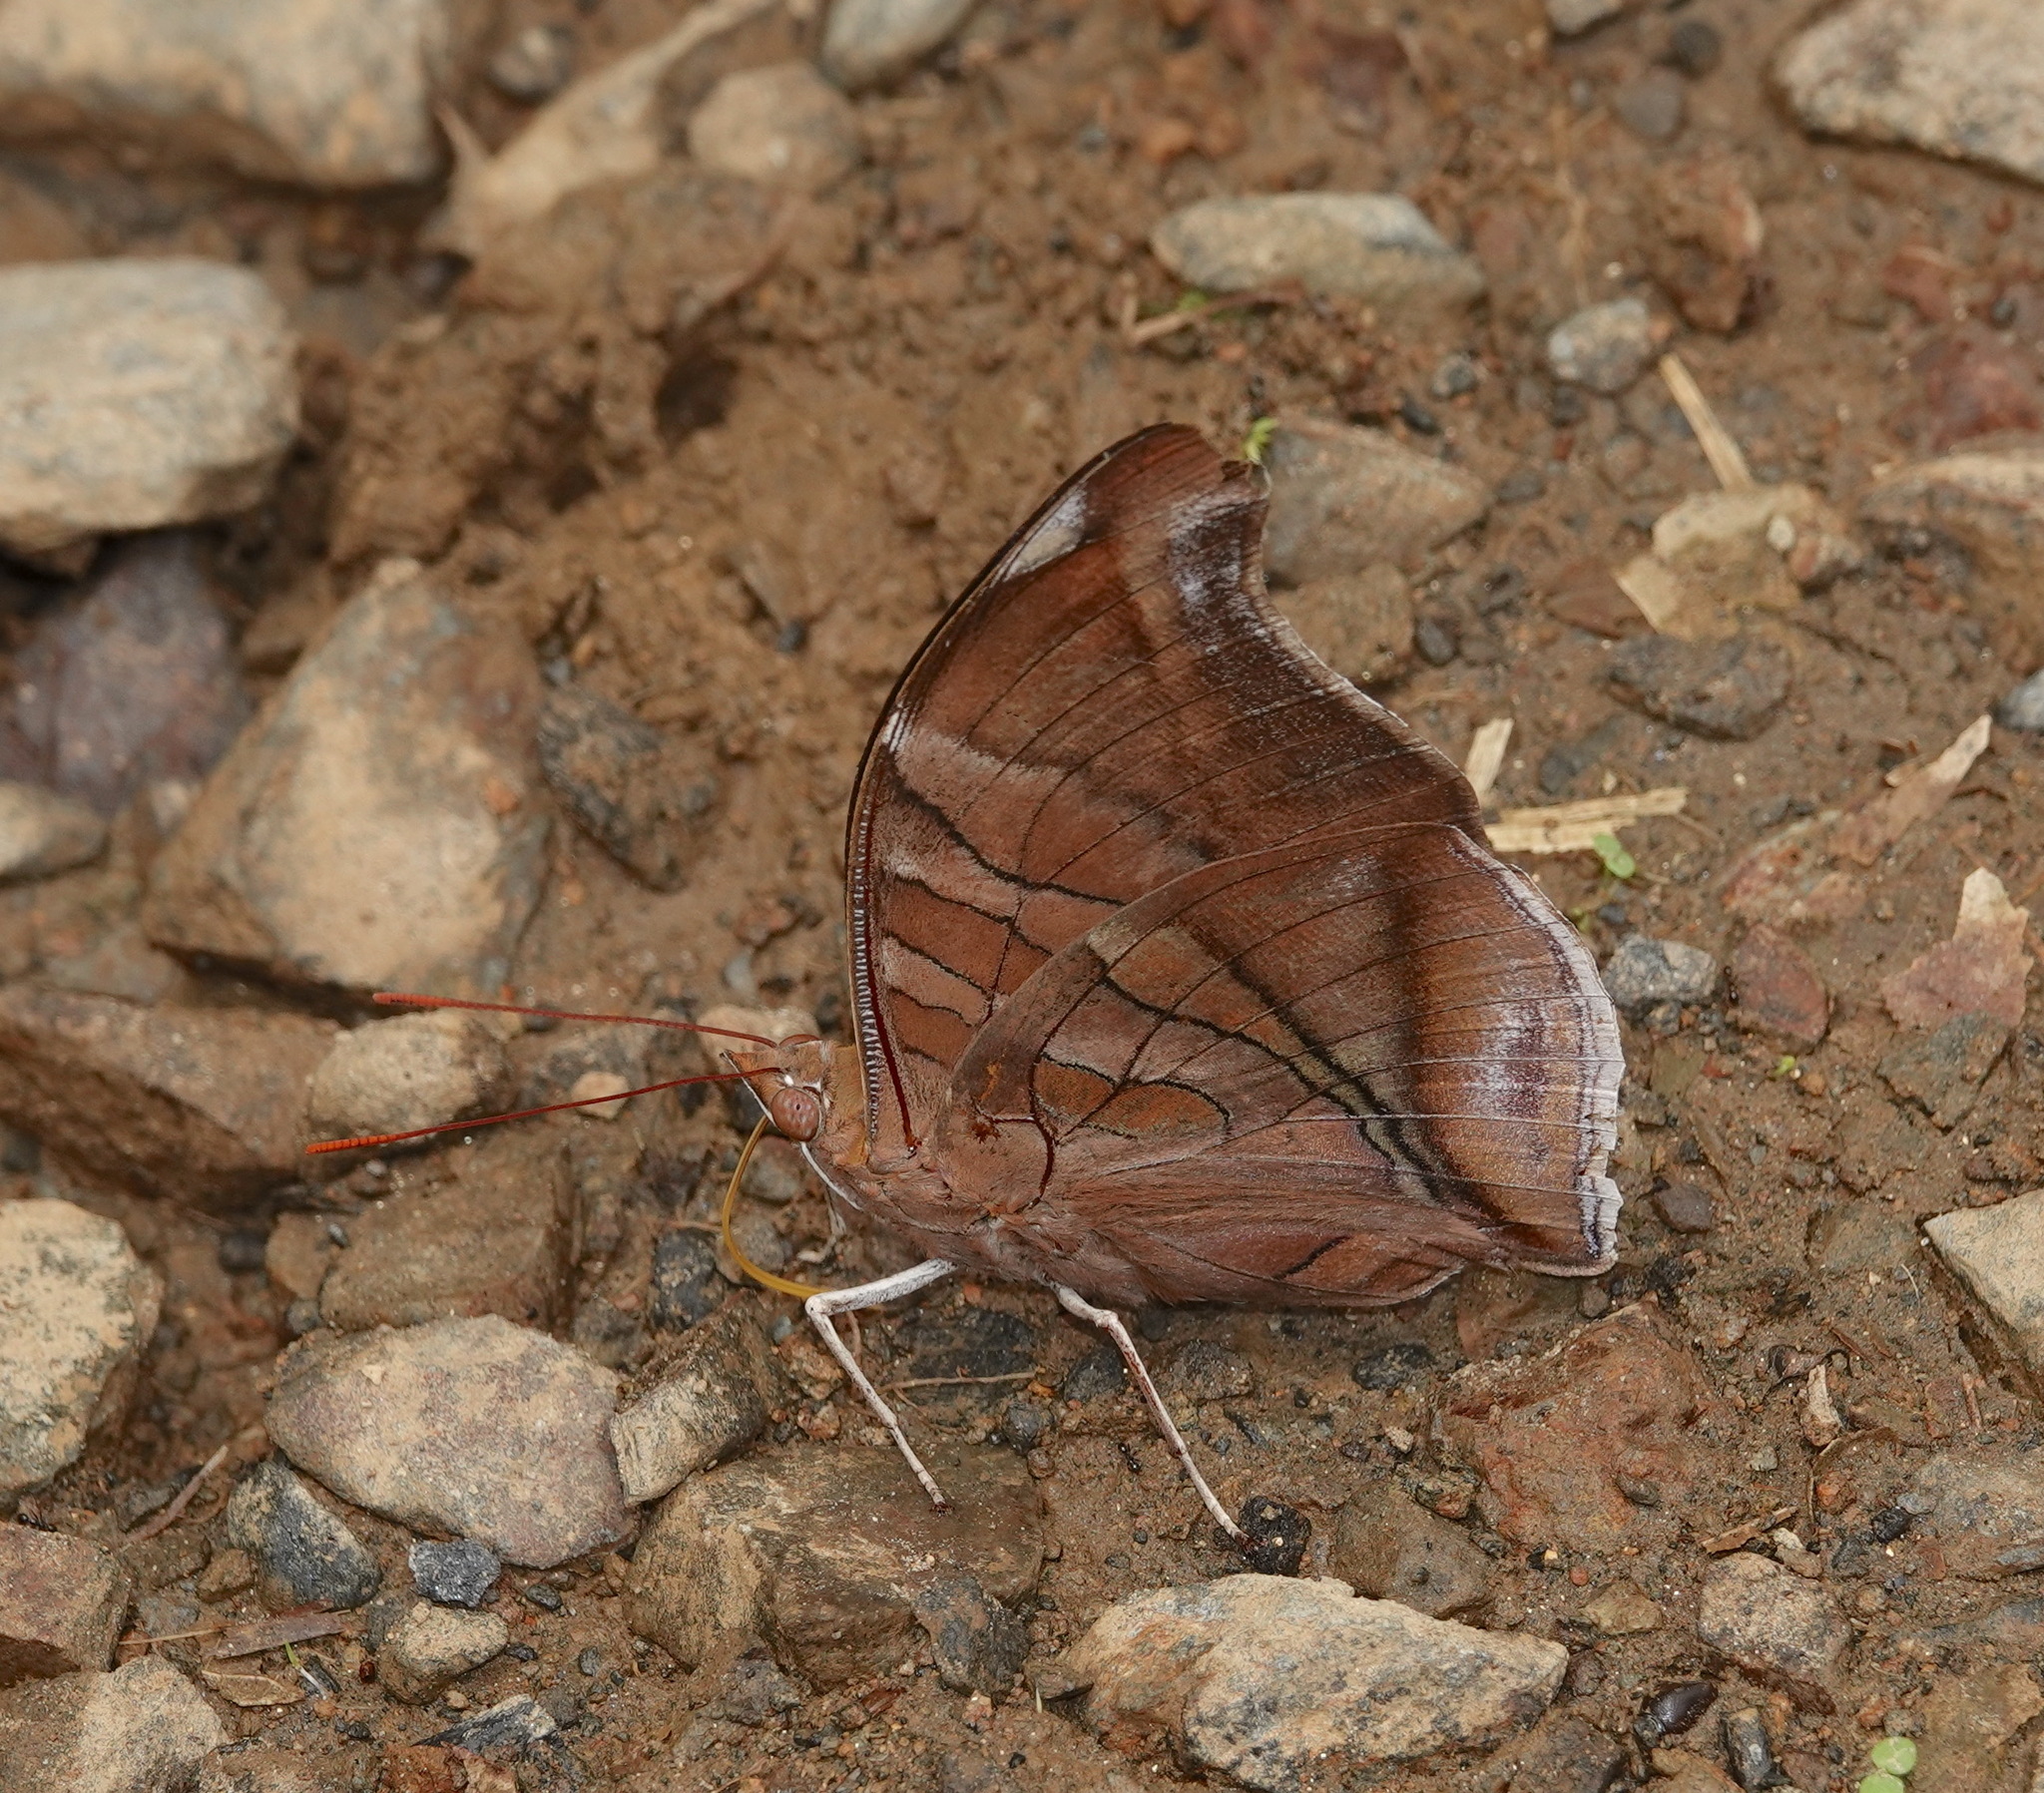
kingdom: Animalia
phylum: Arthropoda
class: Insecta
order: Lepidoptera
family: Nymphalidae
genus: Historis
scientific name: Historis odius
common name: Orion cecropian
